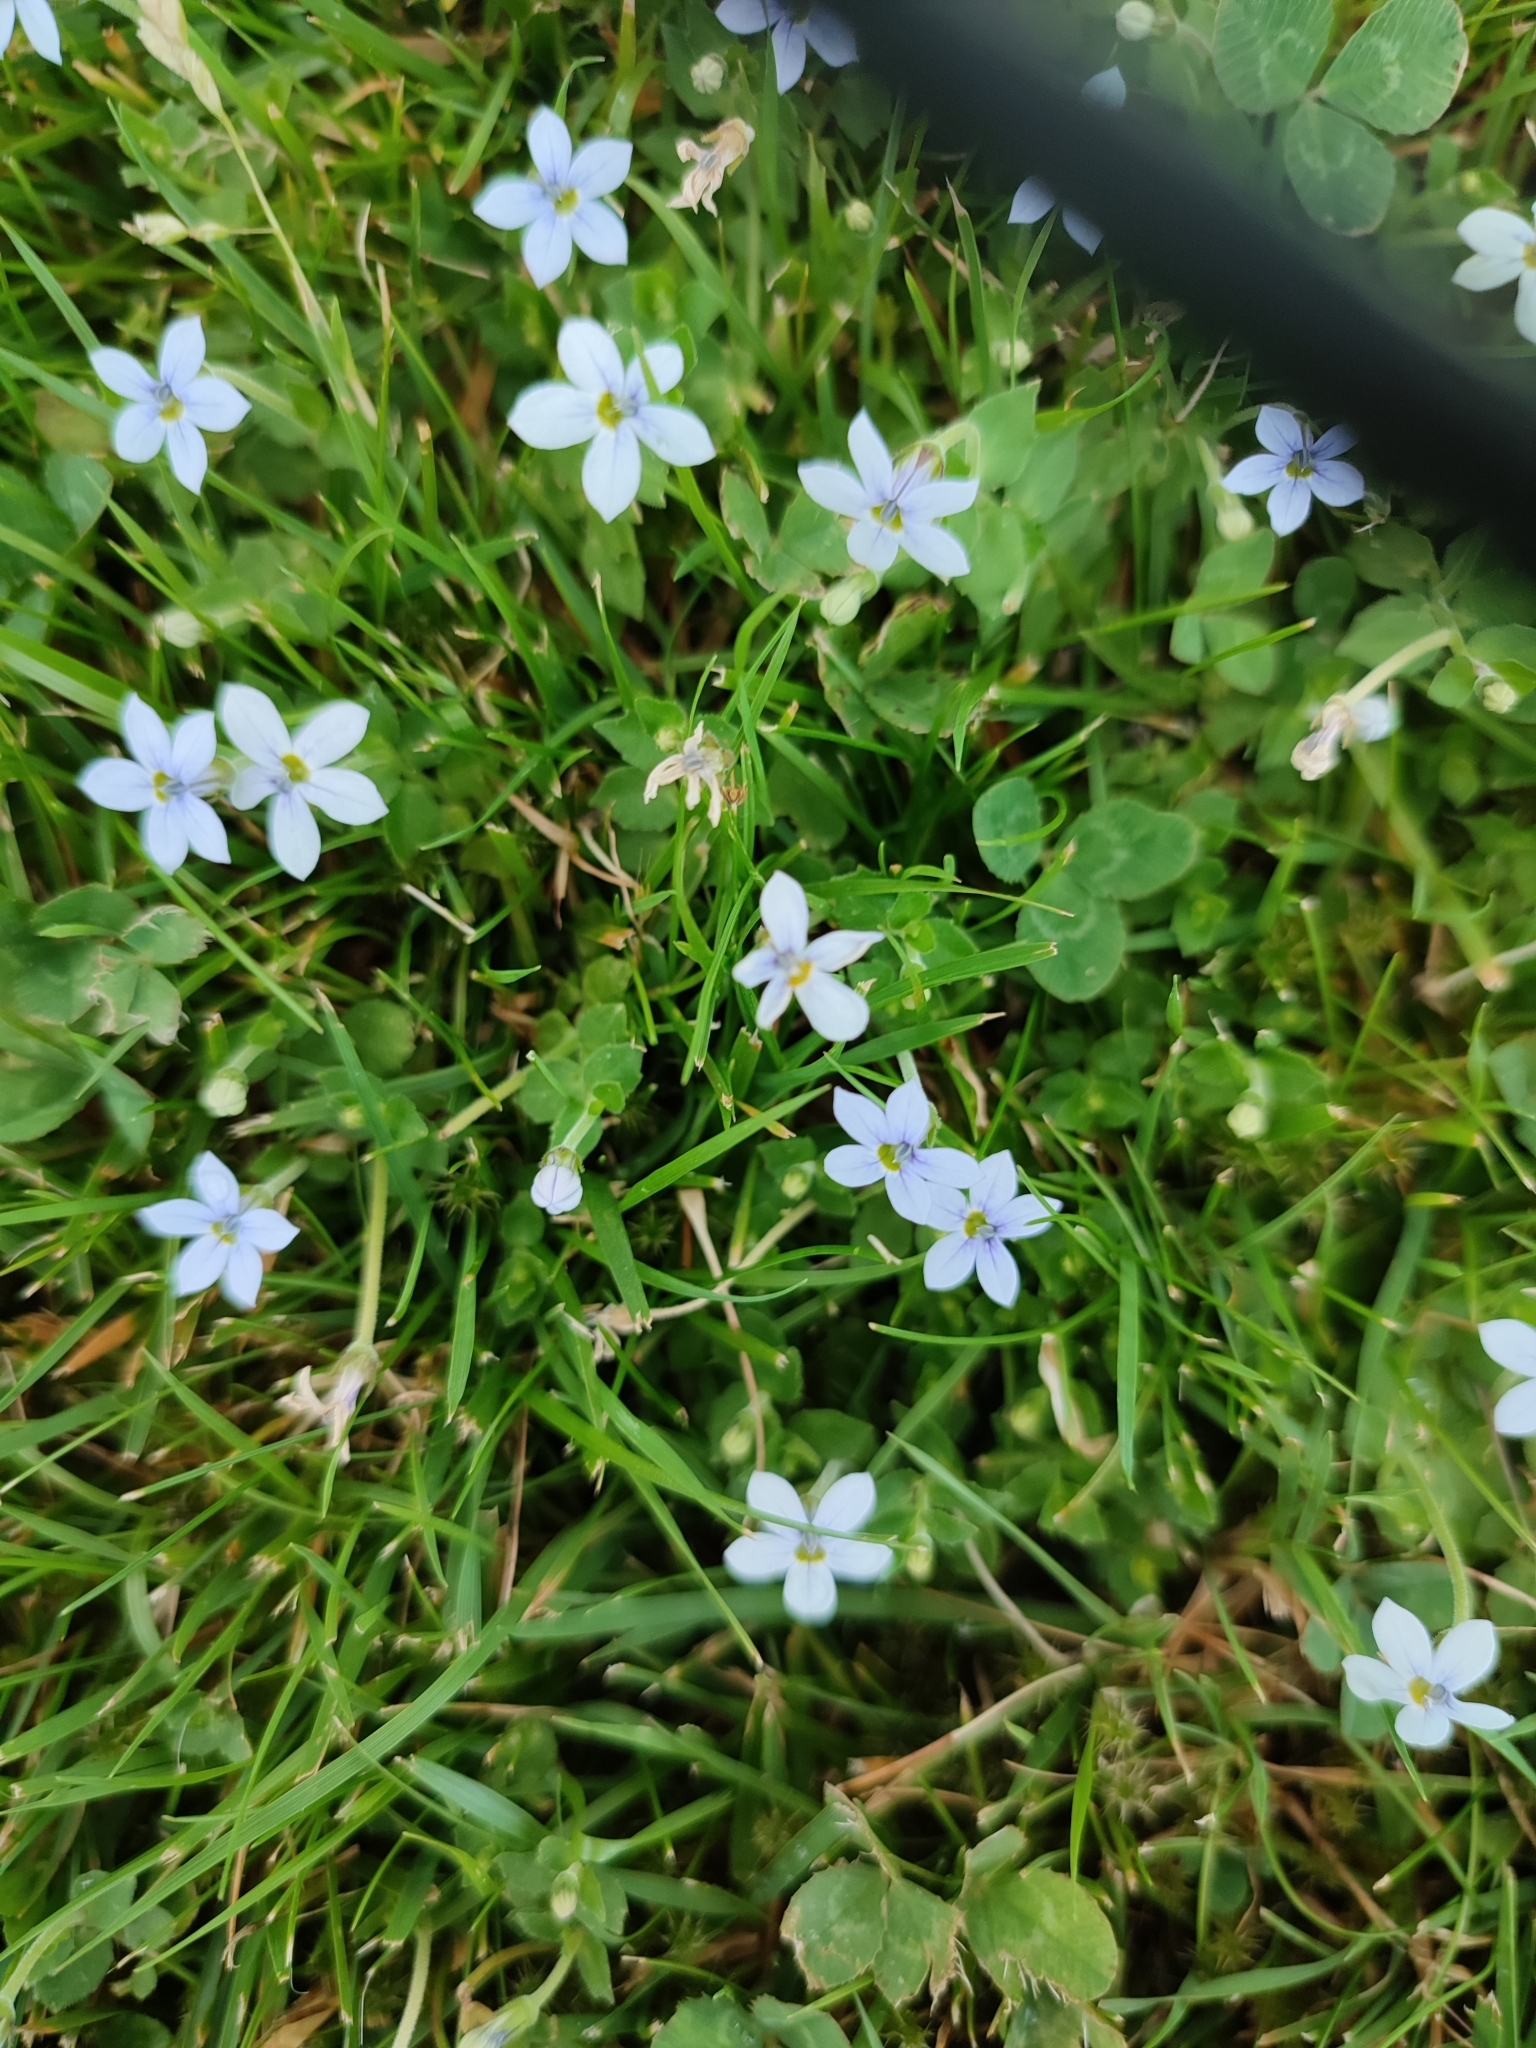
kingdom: Plantae
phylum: Tracheophyta
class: Magnoliopsida
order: Asterales
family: Campanulaceae
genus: Lobelia
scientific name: Lobelia pedunculata
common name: Matted pratia
